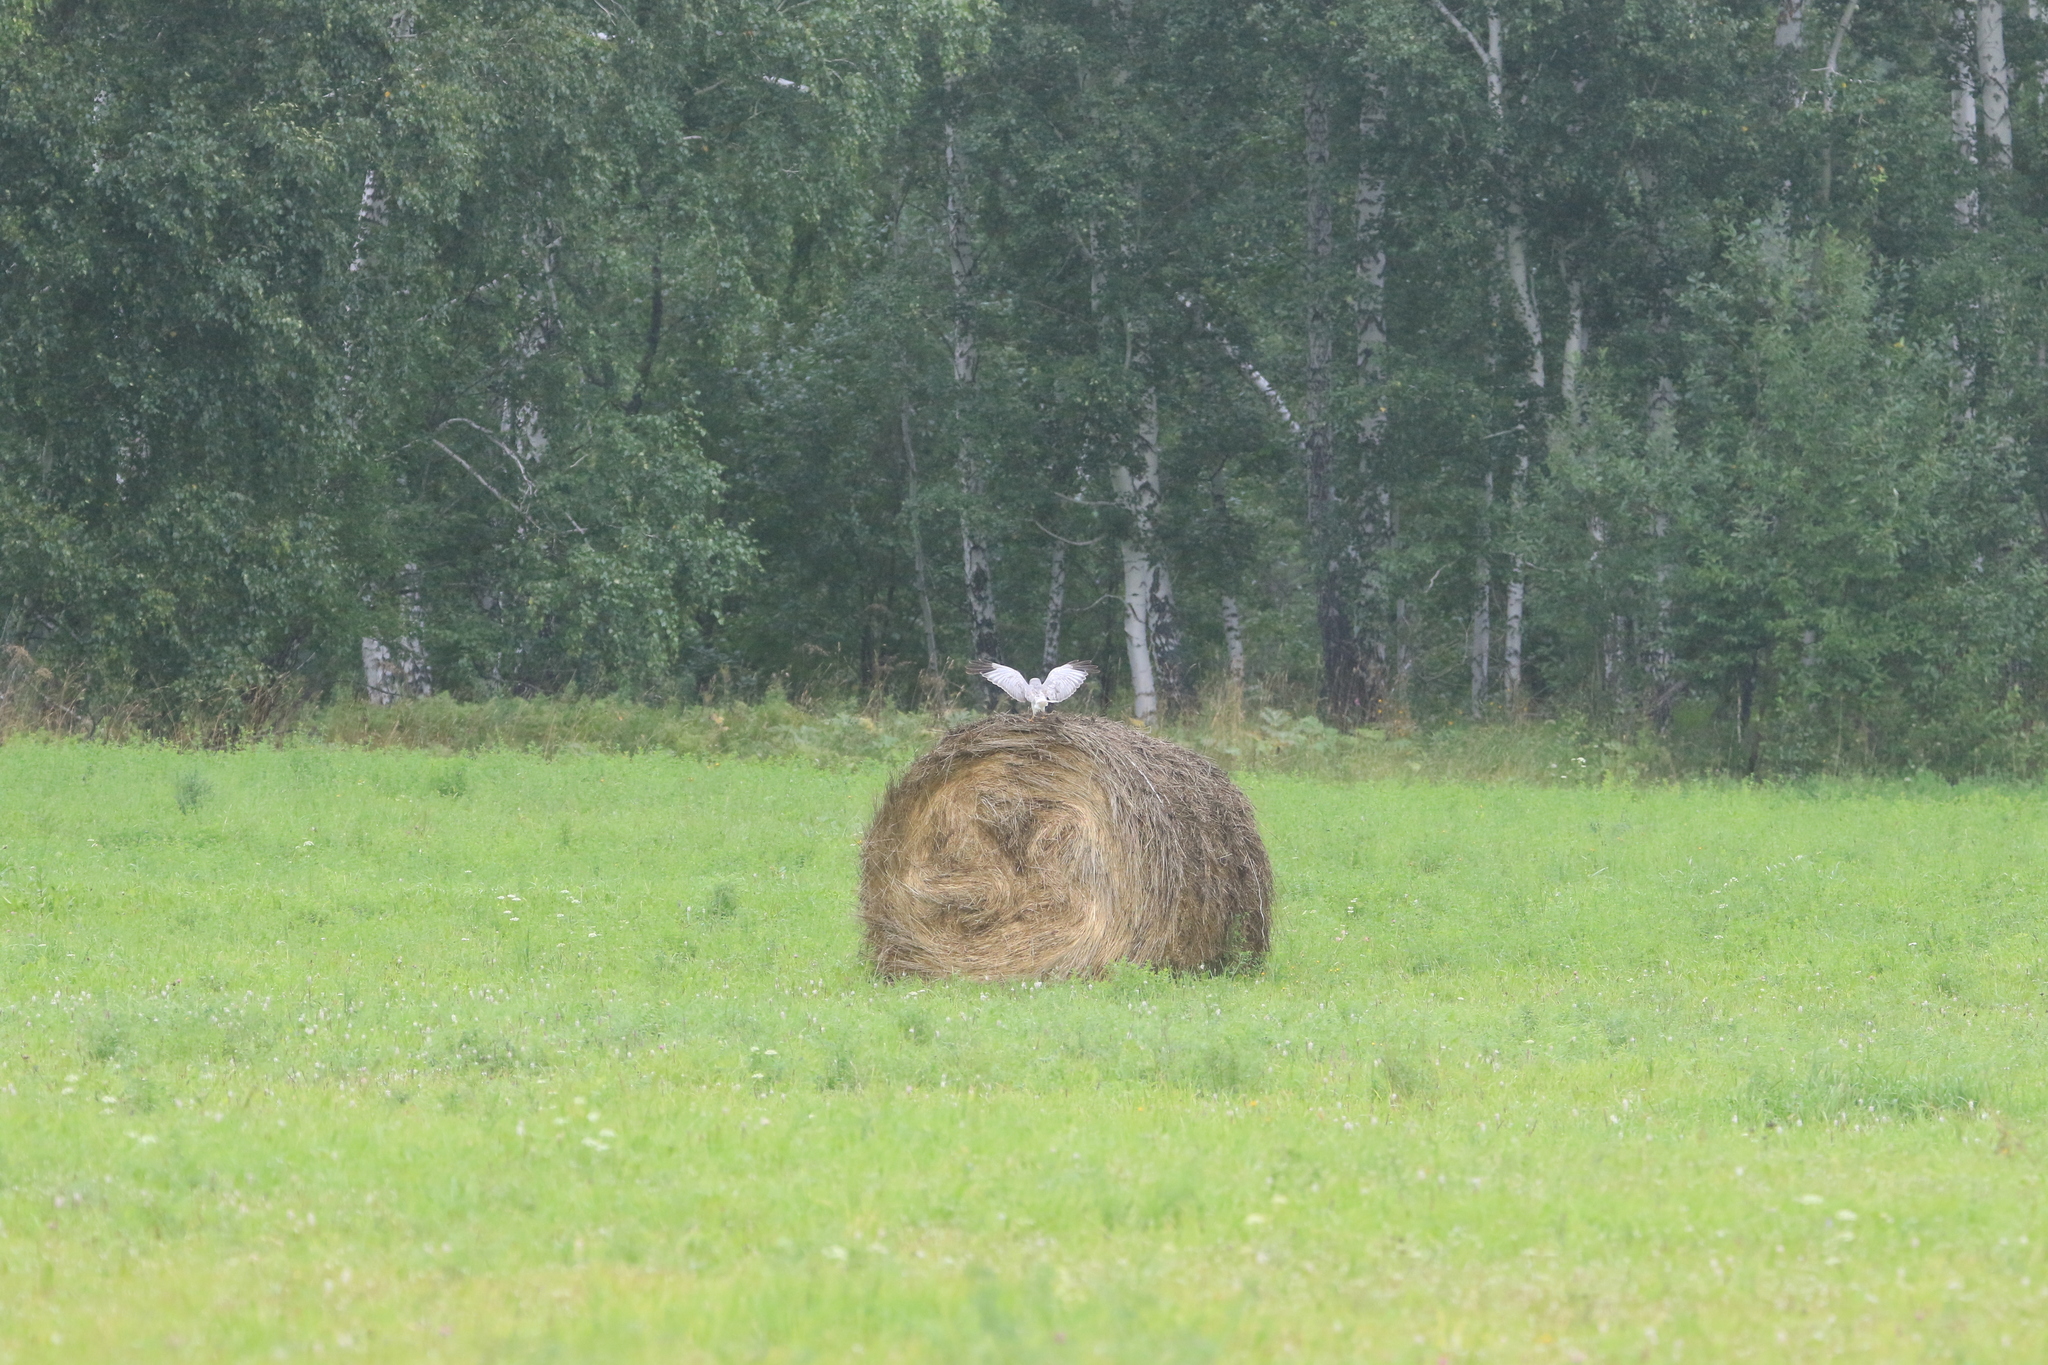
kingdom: Animalia
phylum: Chordata
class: Aves
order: Accipitriformes
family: Accipitridae
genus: Circus
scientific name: Circus cyaneus
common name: Hen harrier
